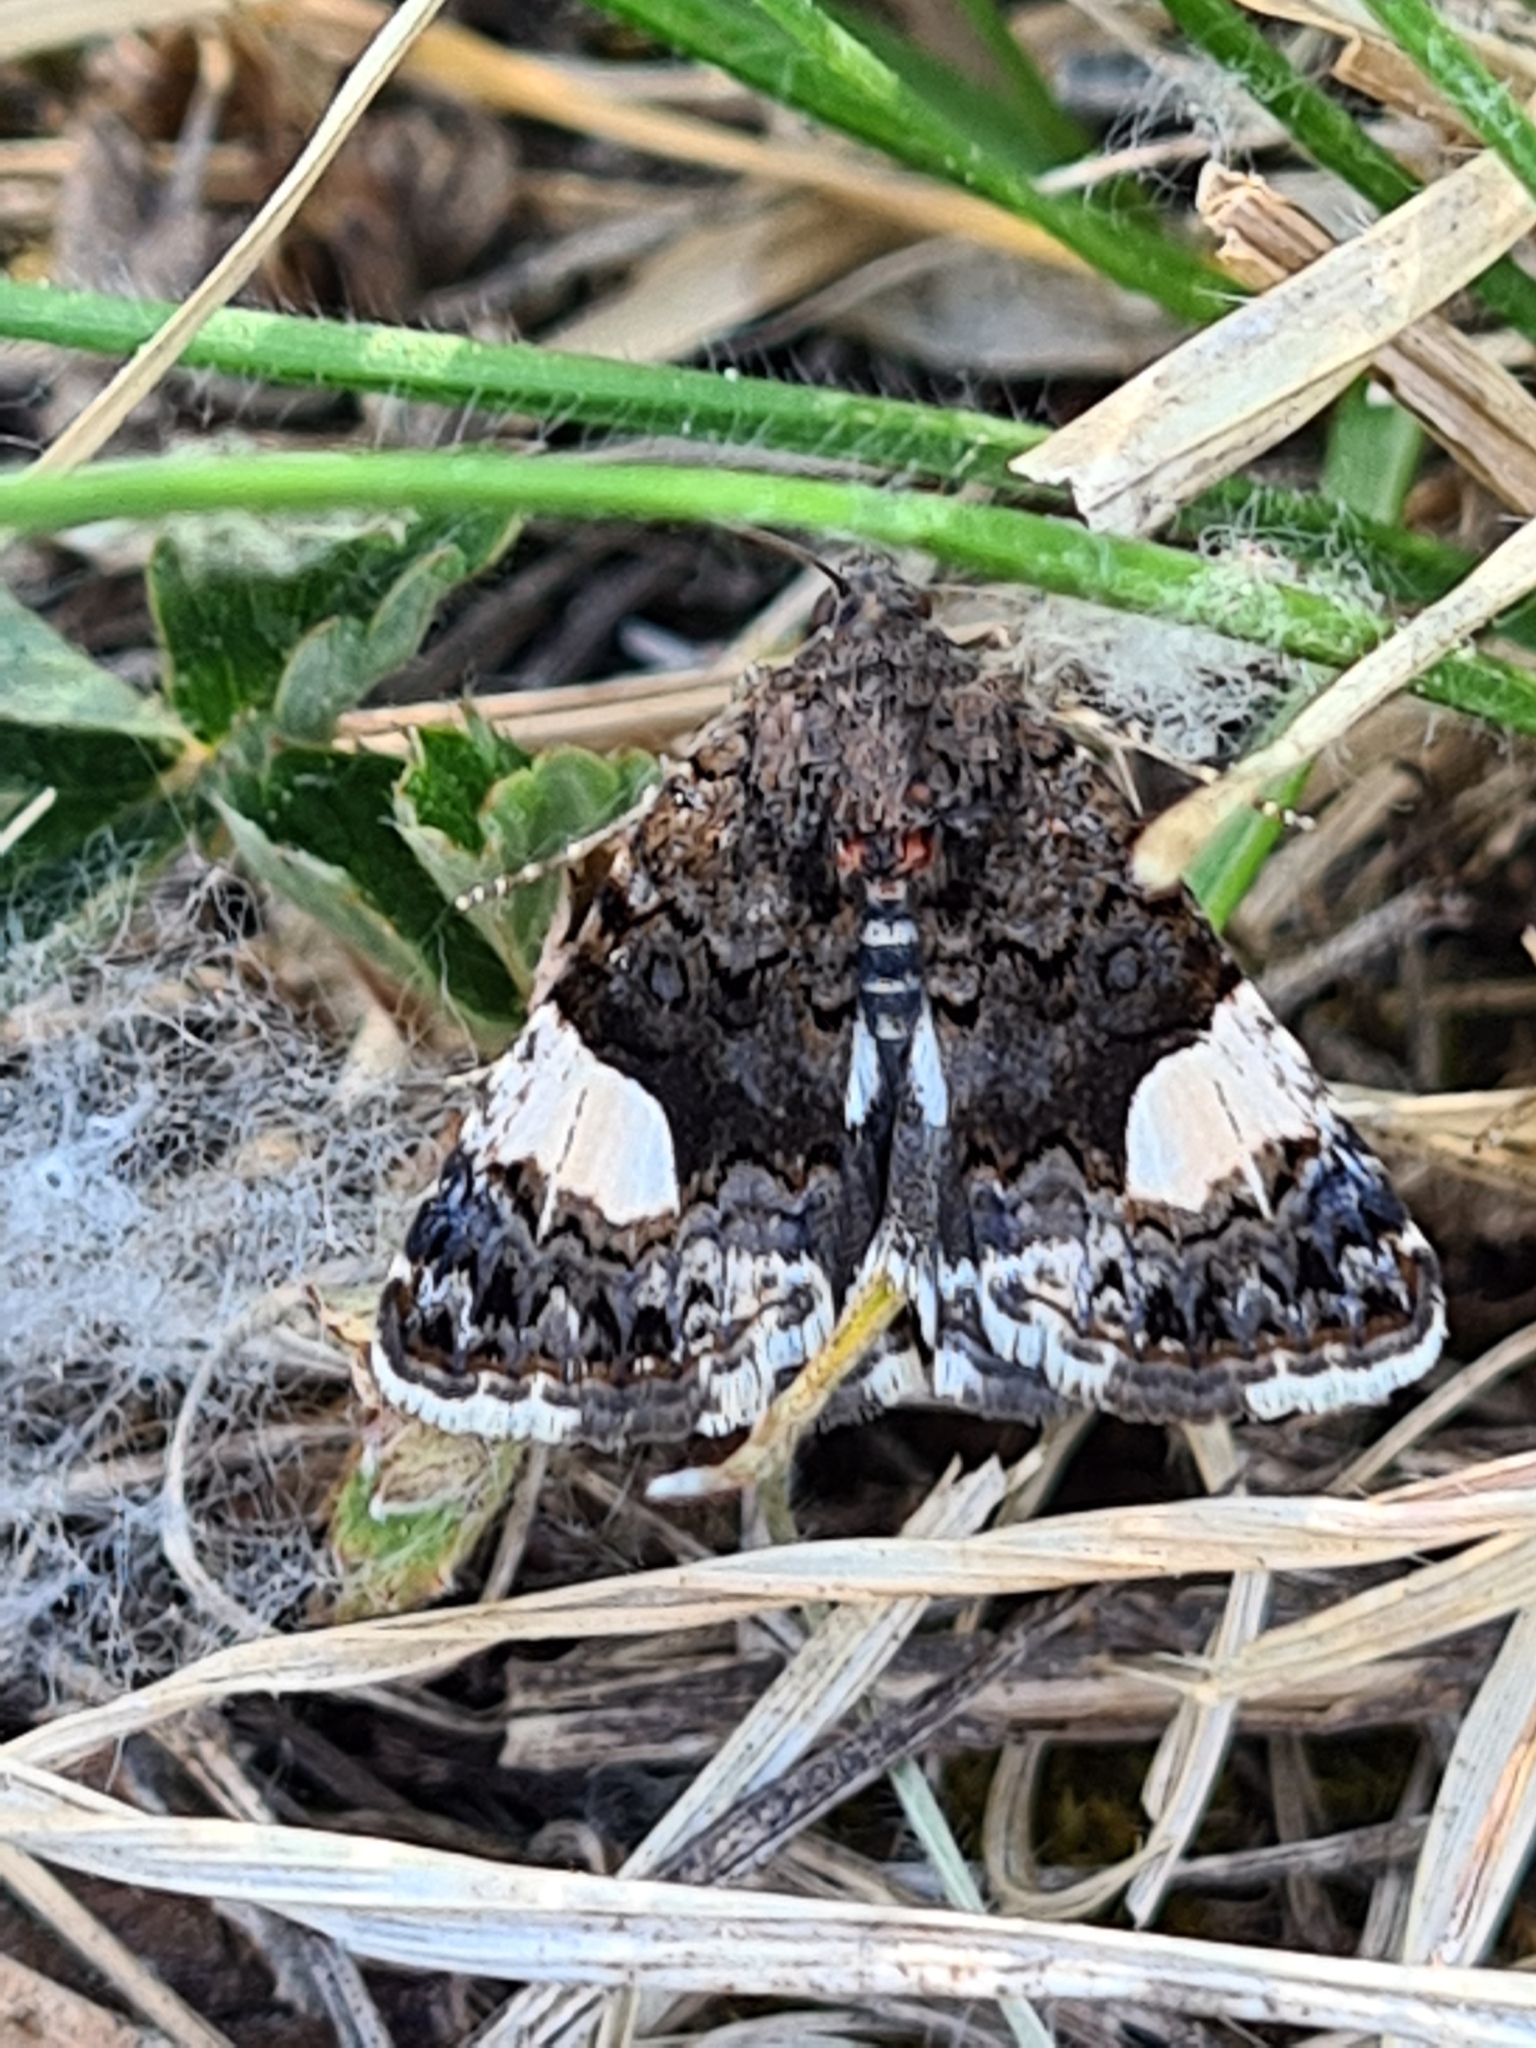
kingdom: Animalia
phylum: Arthropoda
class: Insecta
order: Lepidoptera
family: Erebidae
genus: Tyta
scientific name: Tyta luctuosa
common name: Four-spotted
